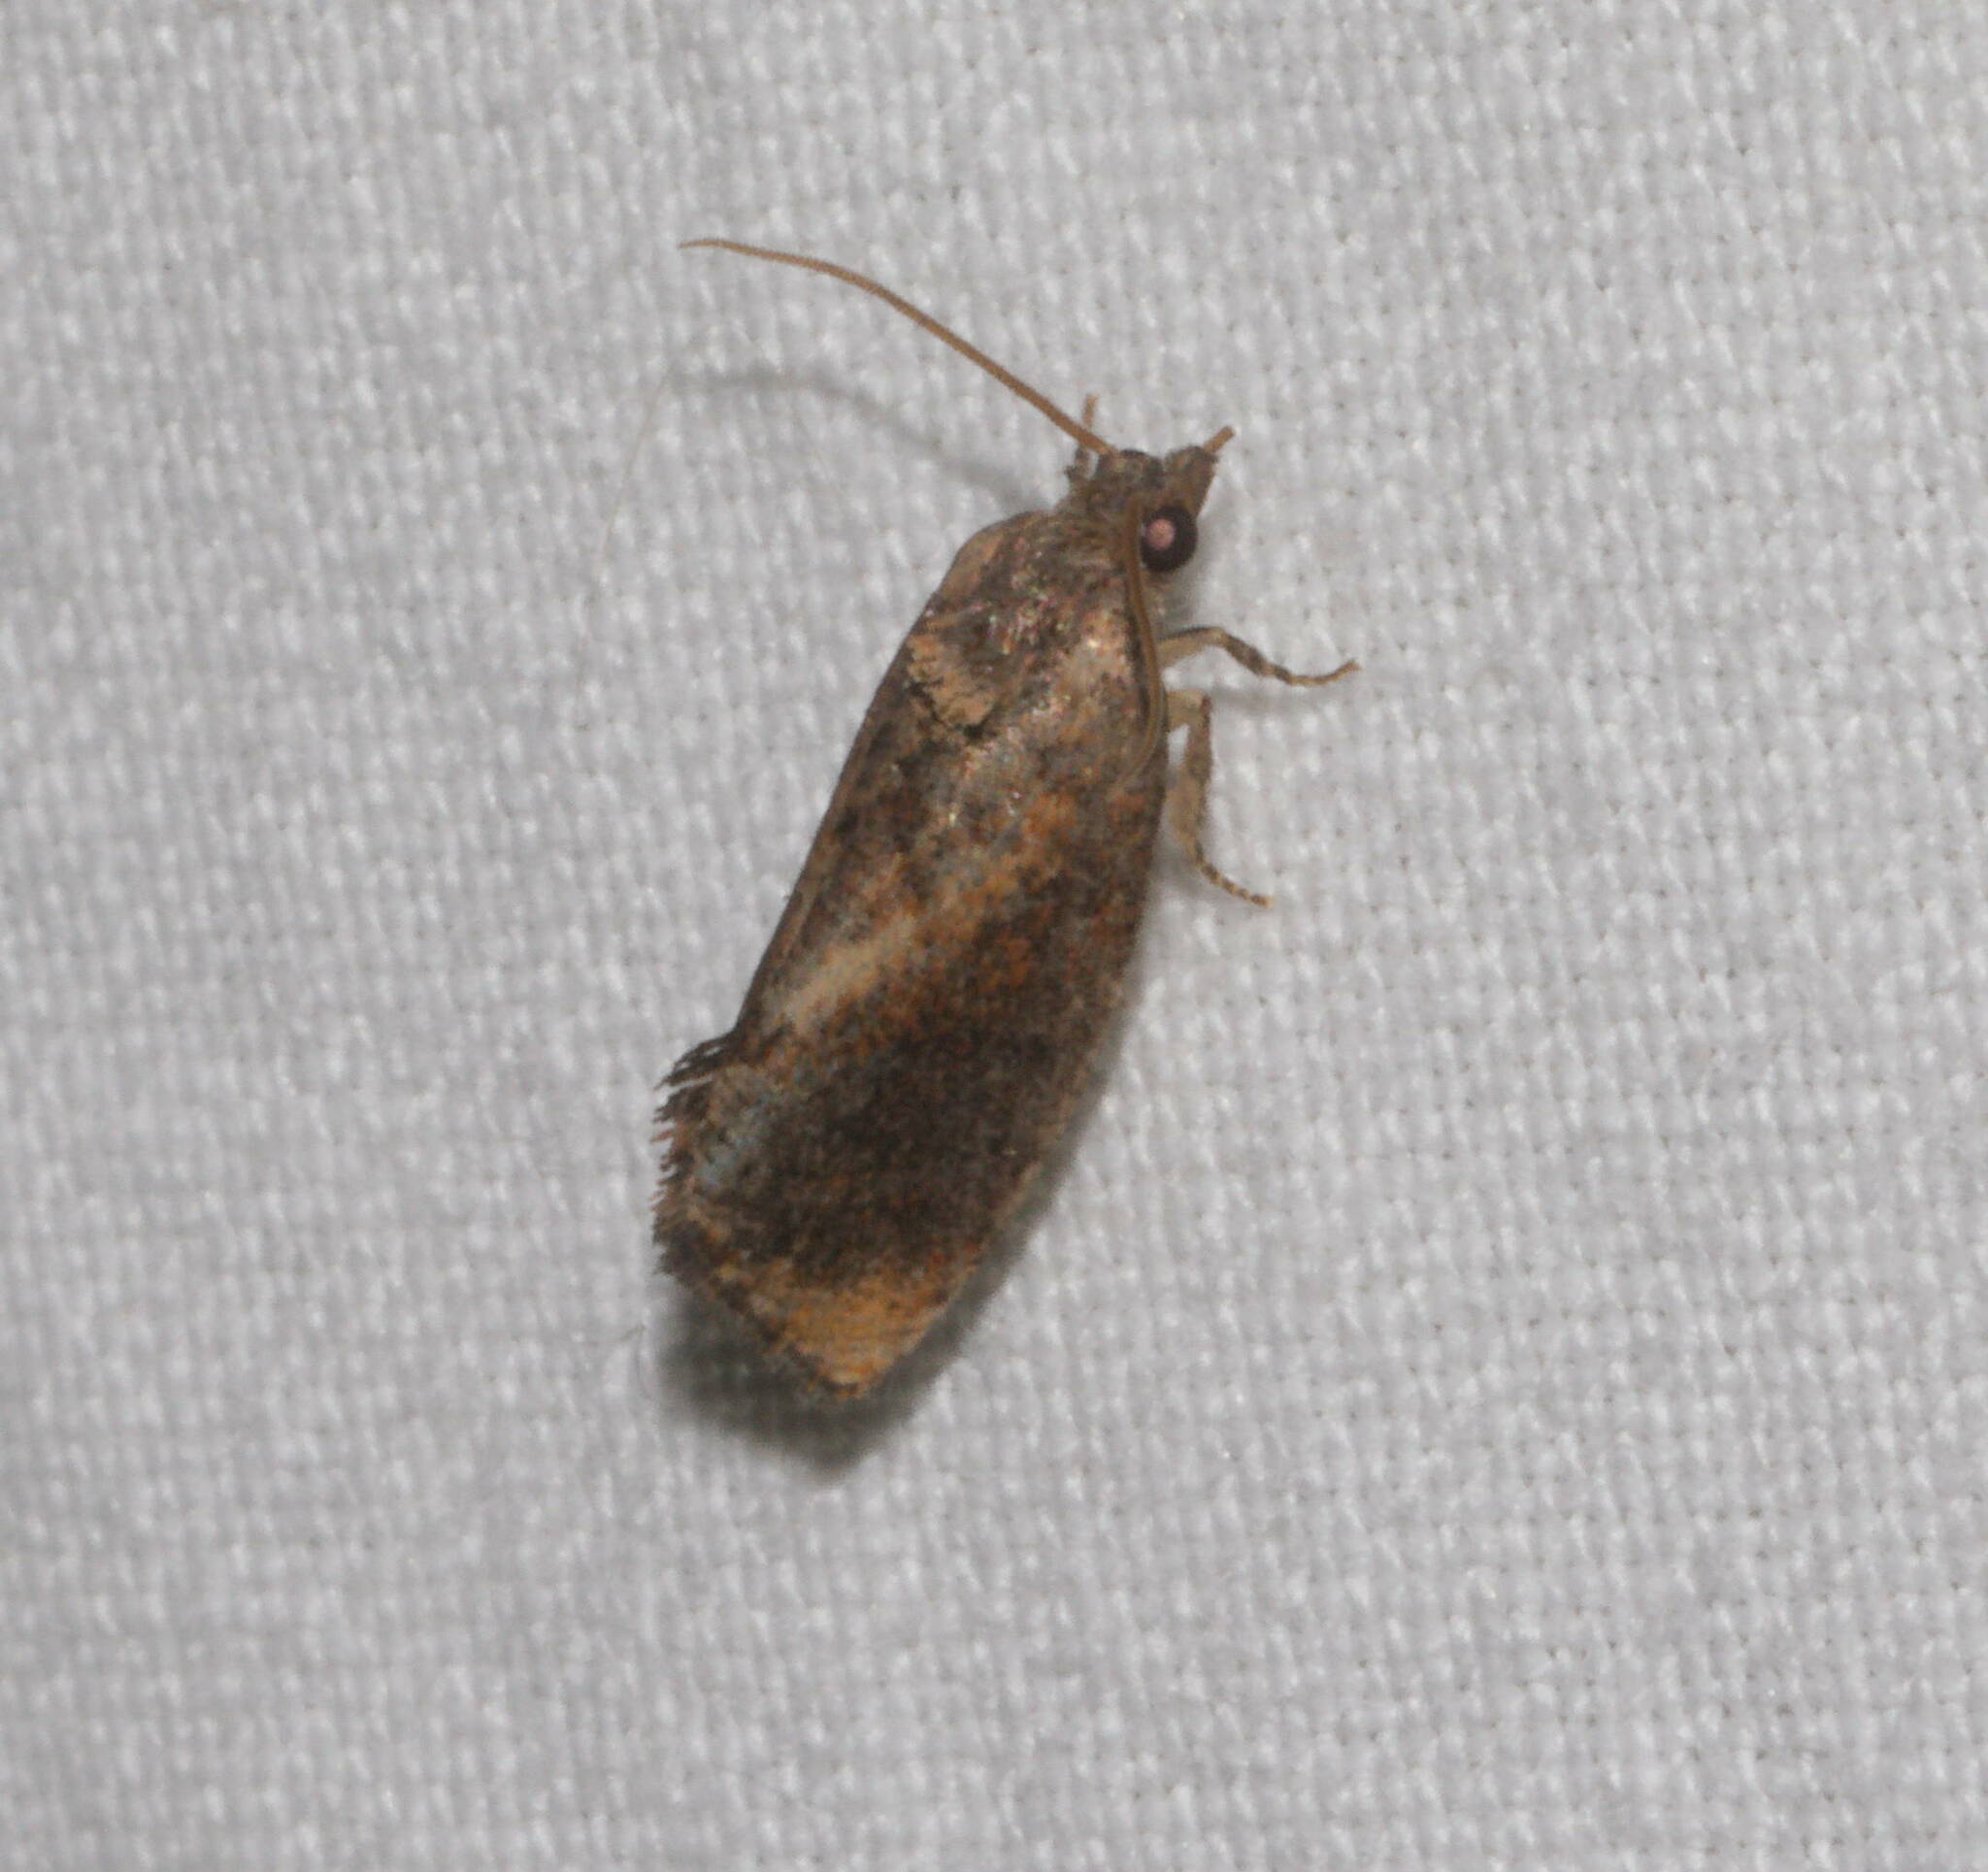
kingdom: Animalia
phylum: Arthropoda
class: Insecta
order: Lepidoptera
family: Tortricidae
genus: Cryptophlebia
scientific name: Cryptophlebia illepida
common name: Moth
